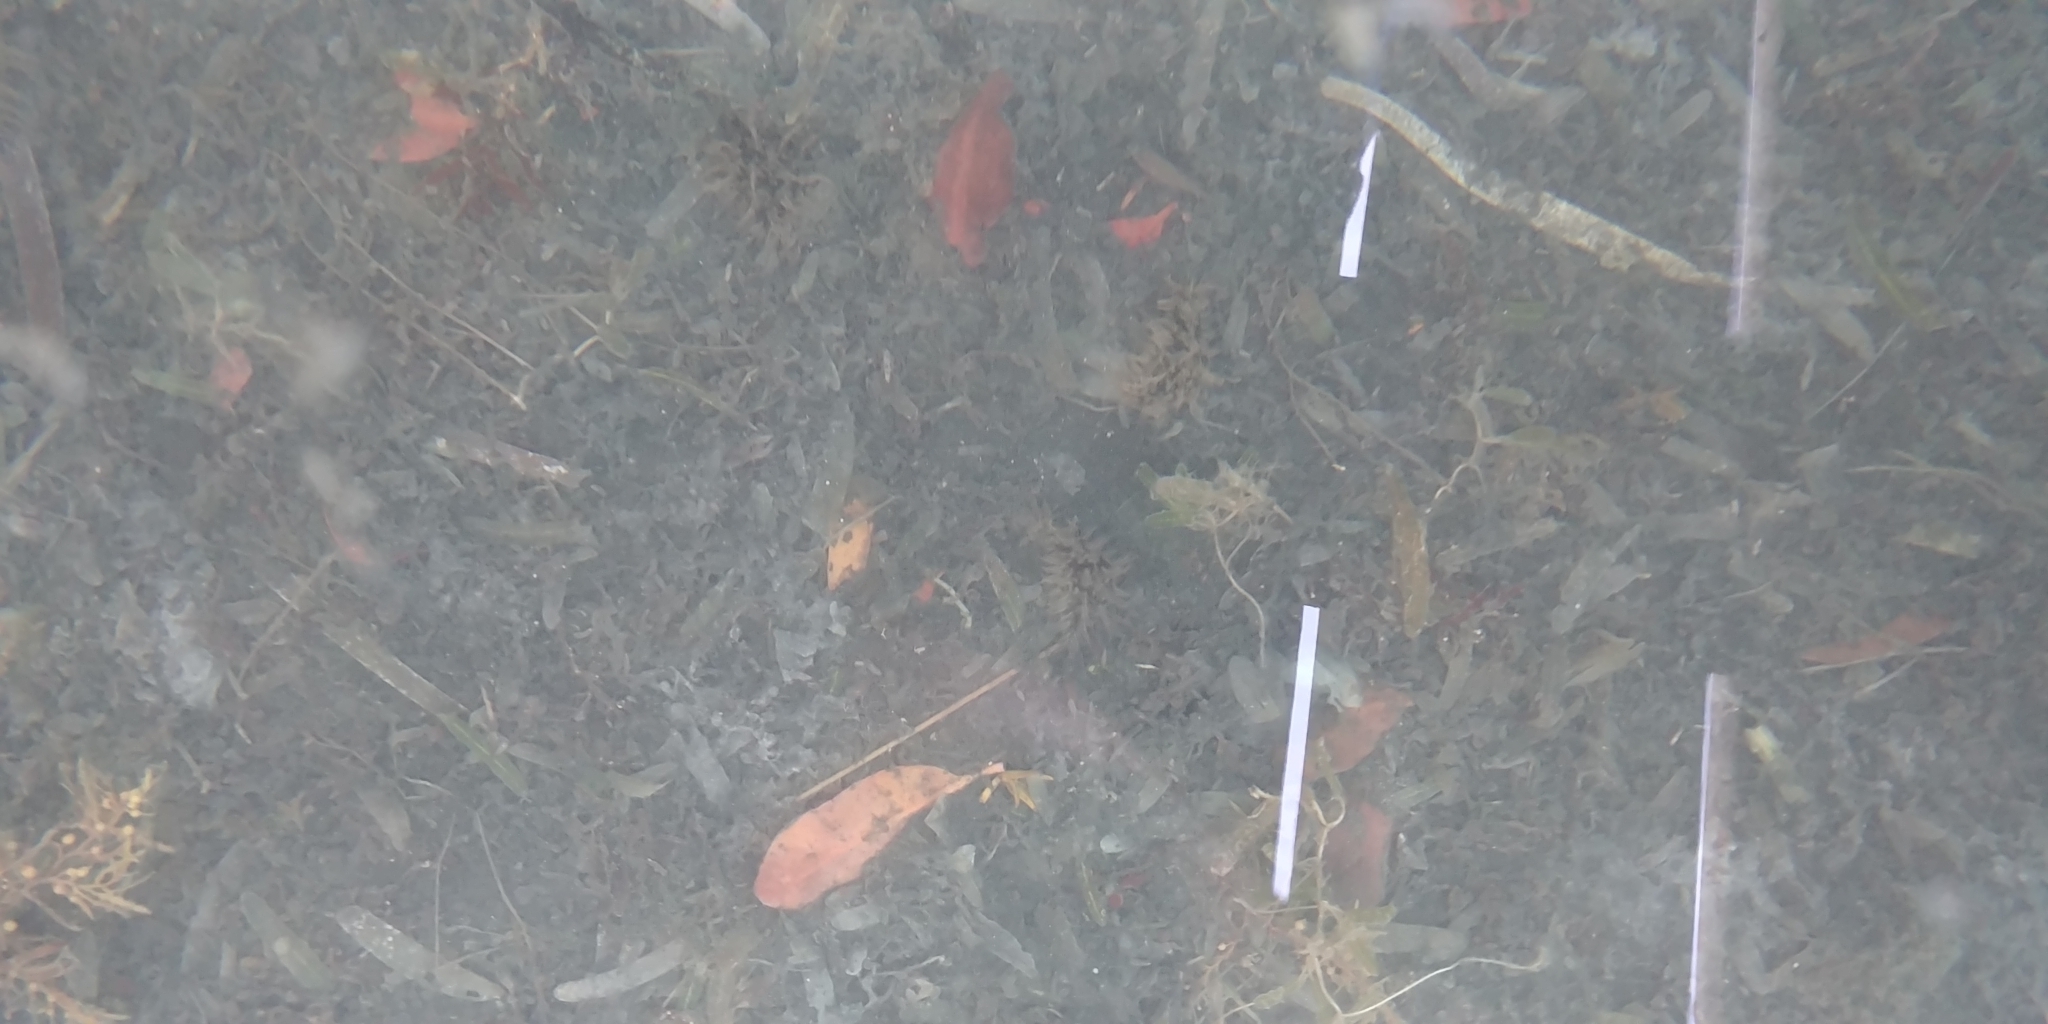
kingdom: Animalia
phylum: Mollusca
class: Gastropoda
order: Aplysiida
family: Aplysiidae
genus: Bursatella
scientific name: Bursatella leachii
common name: Shaggy sea hare
